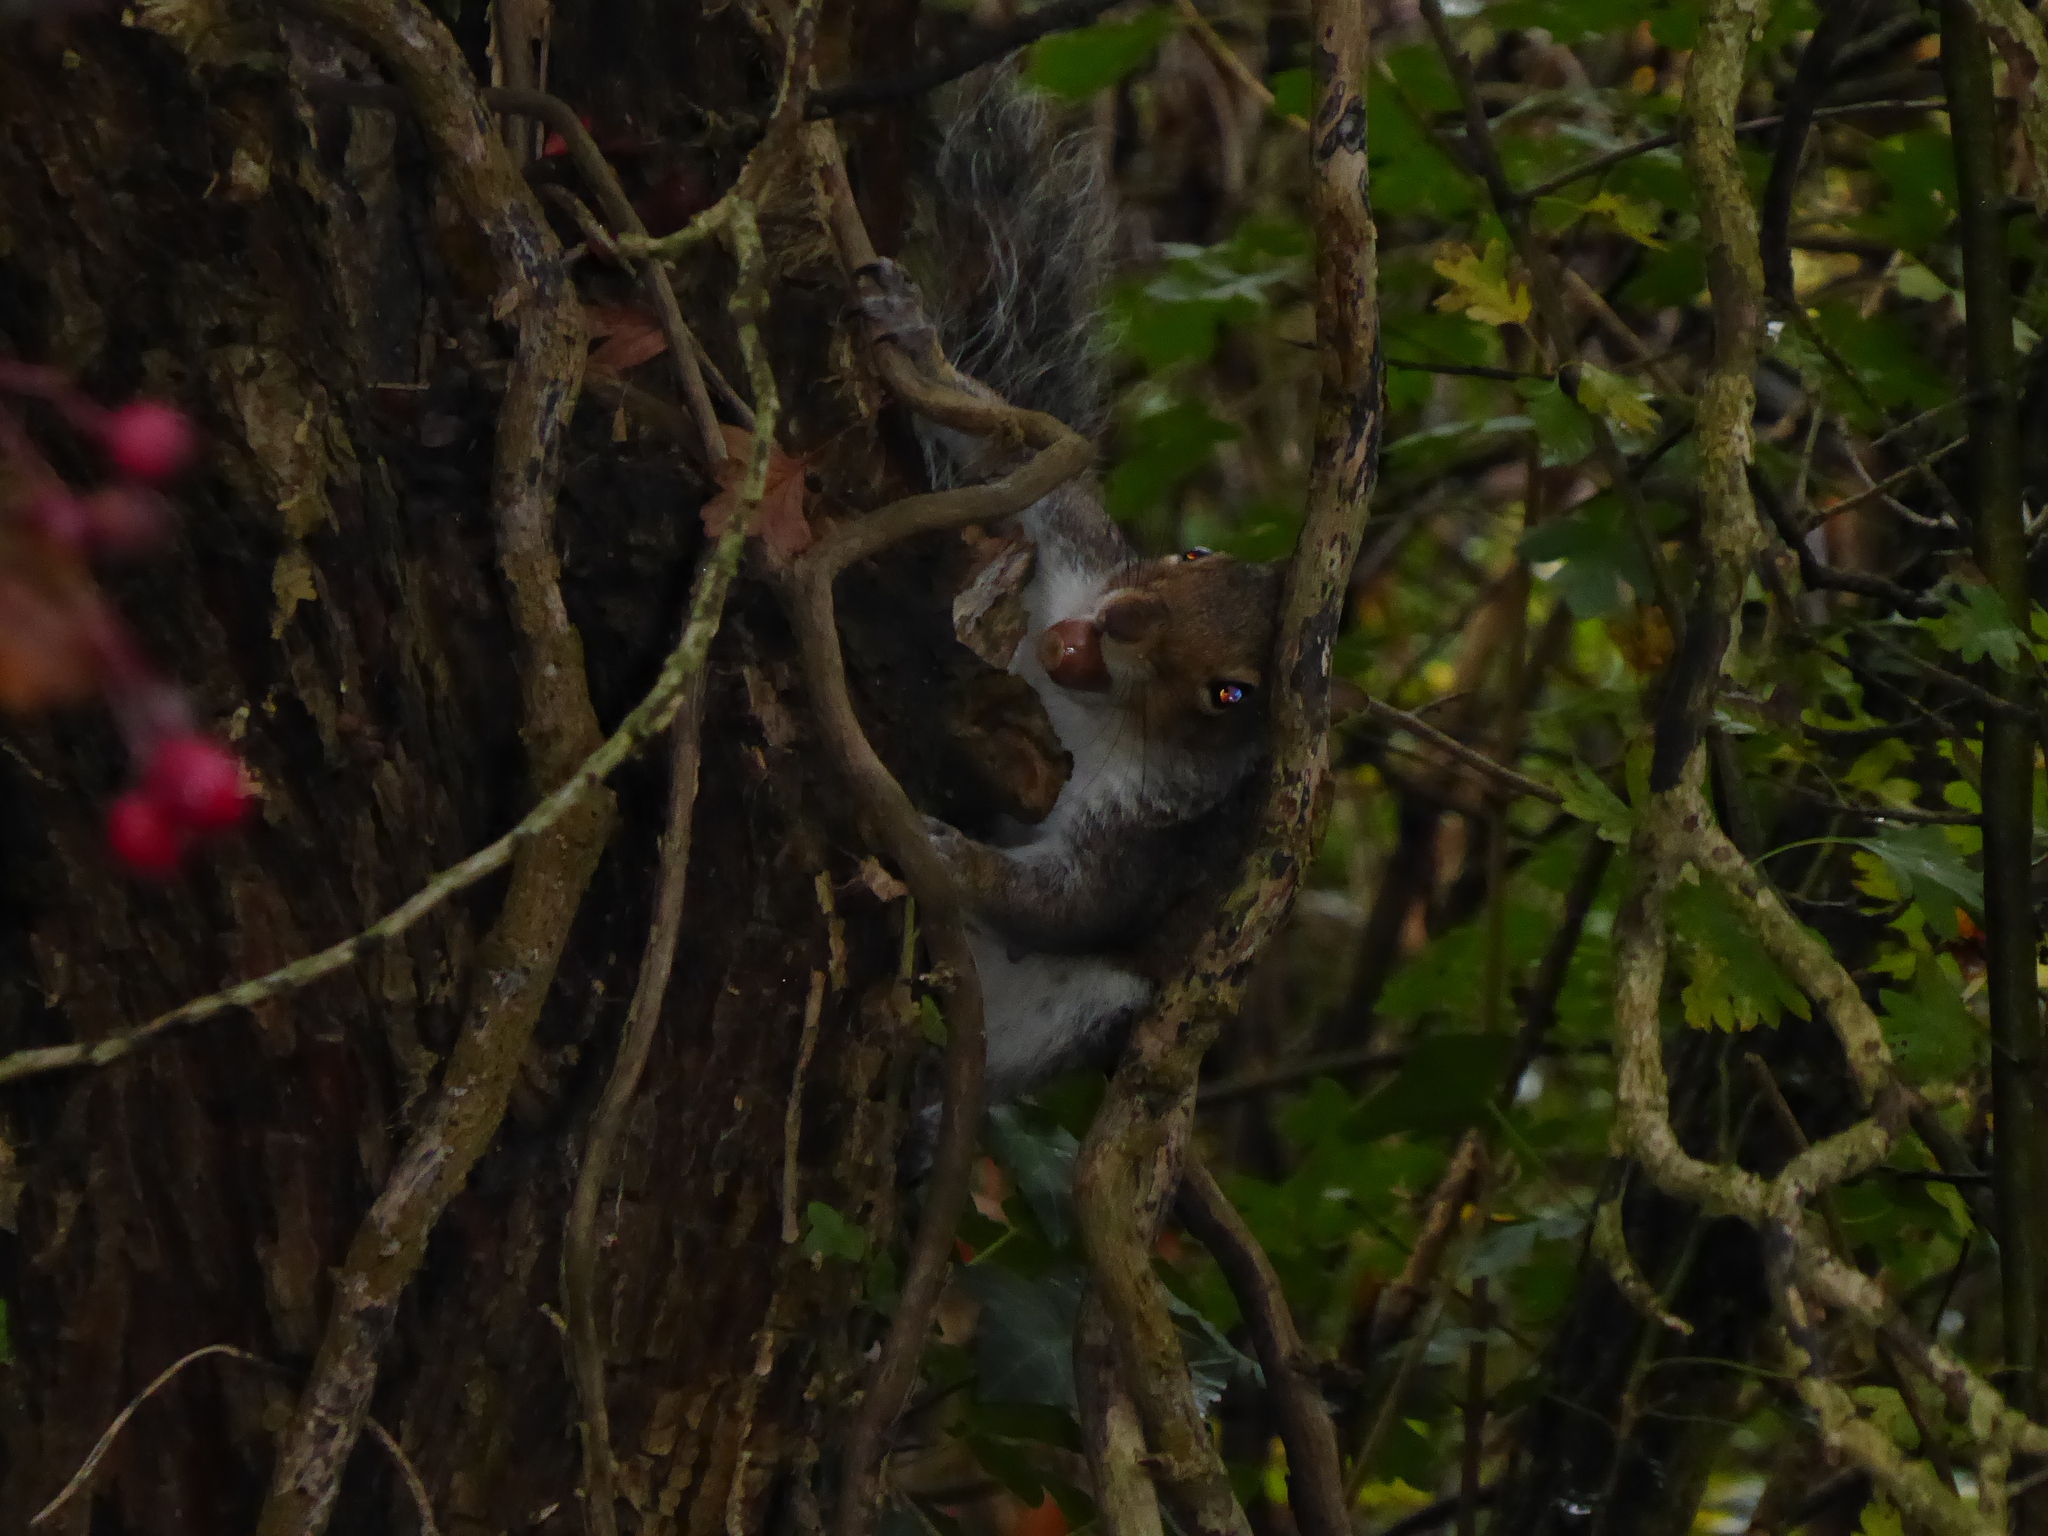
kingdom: Animalia
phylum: Chordata
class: Mammalia
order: Rodentia
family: Sciuridae
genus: Sciurus
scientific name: Sciurus carolinensis
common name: Eastern gray squirrel
